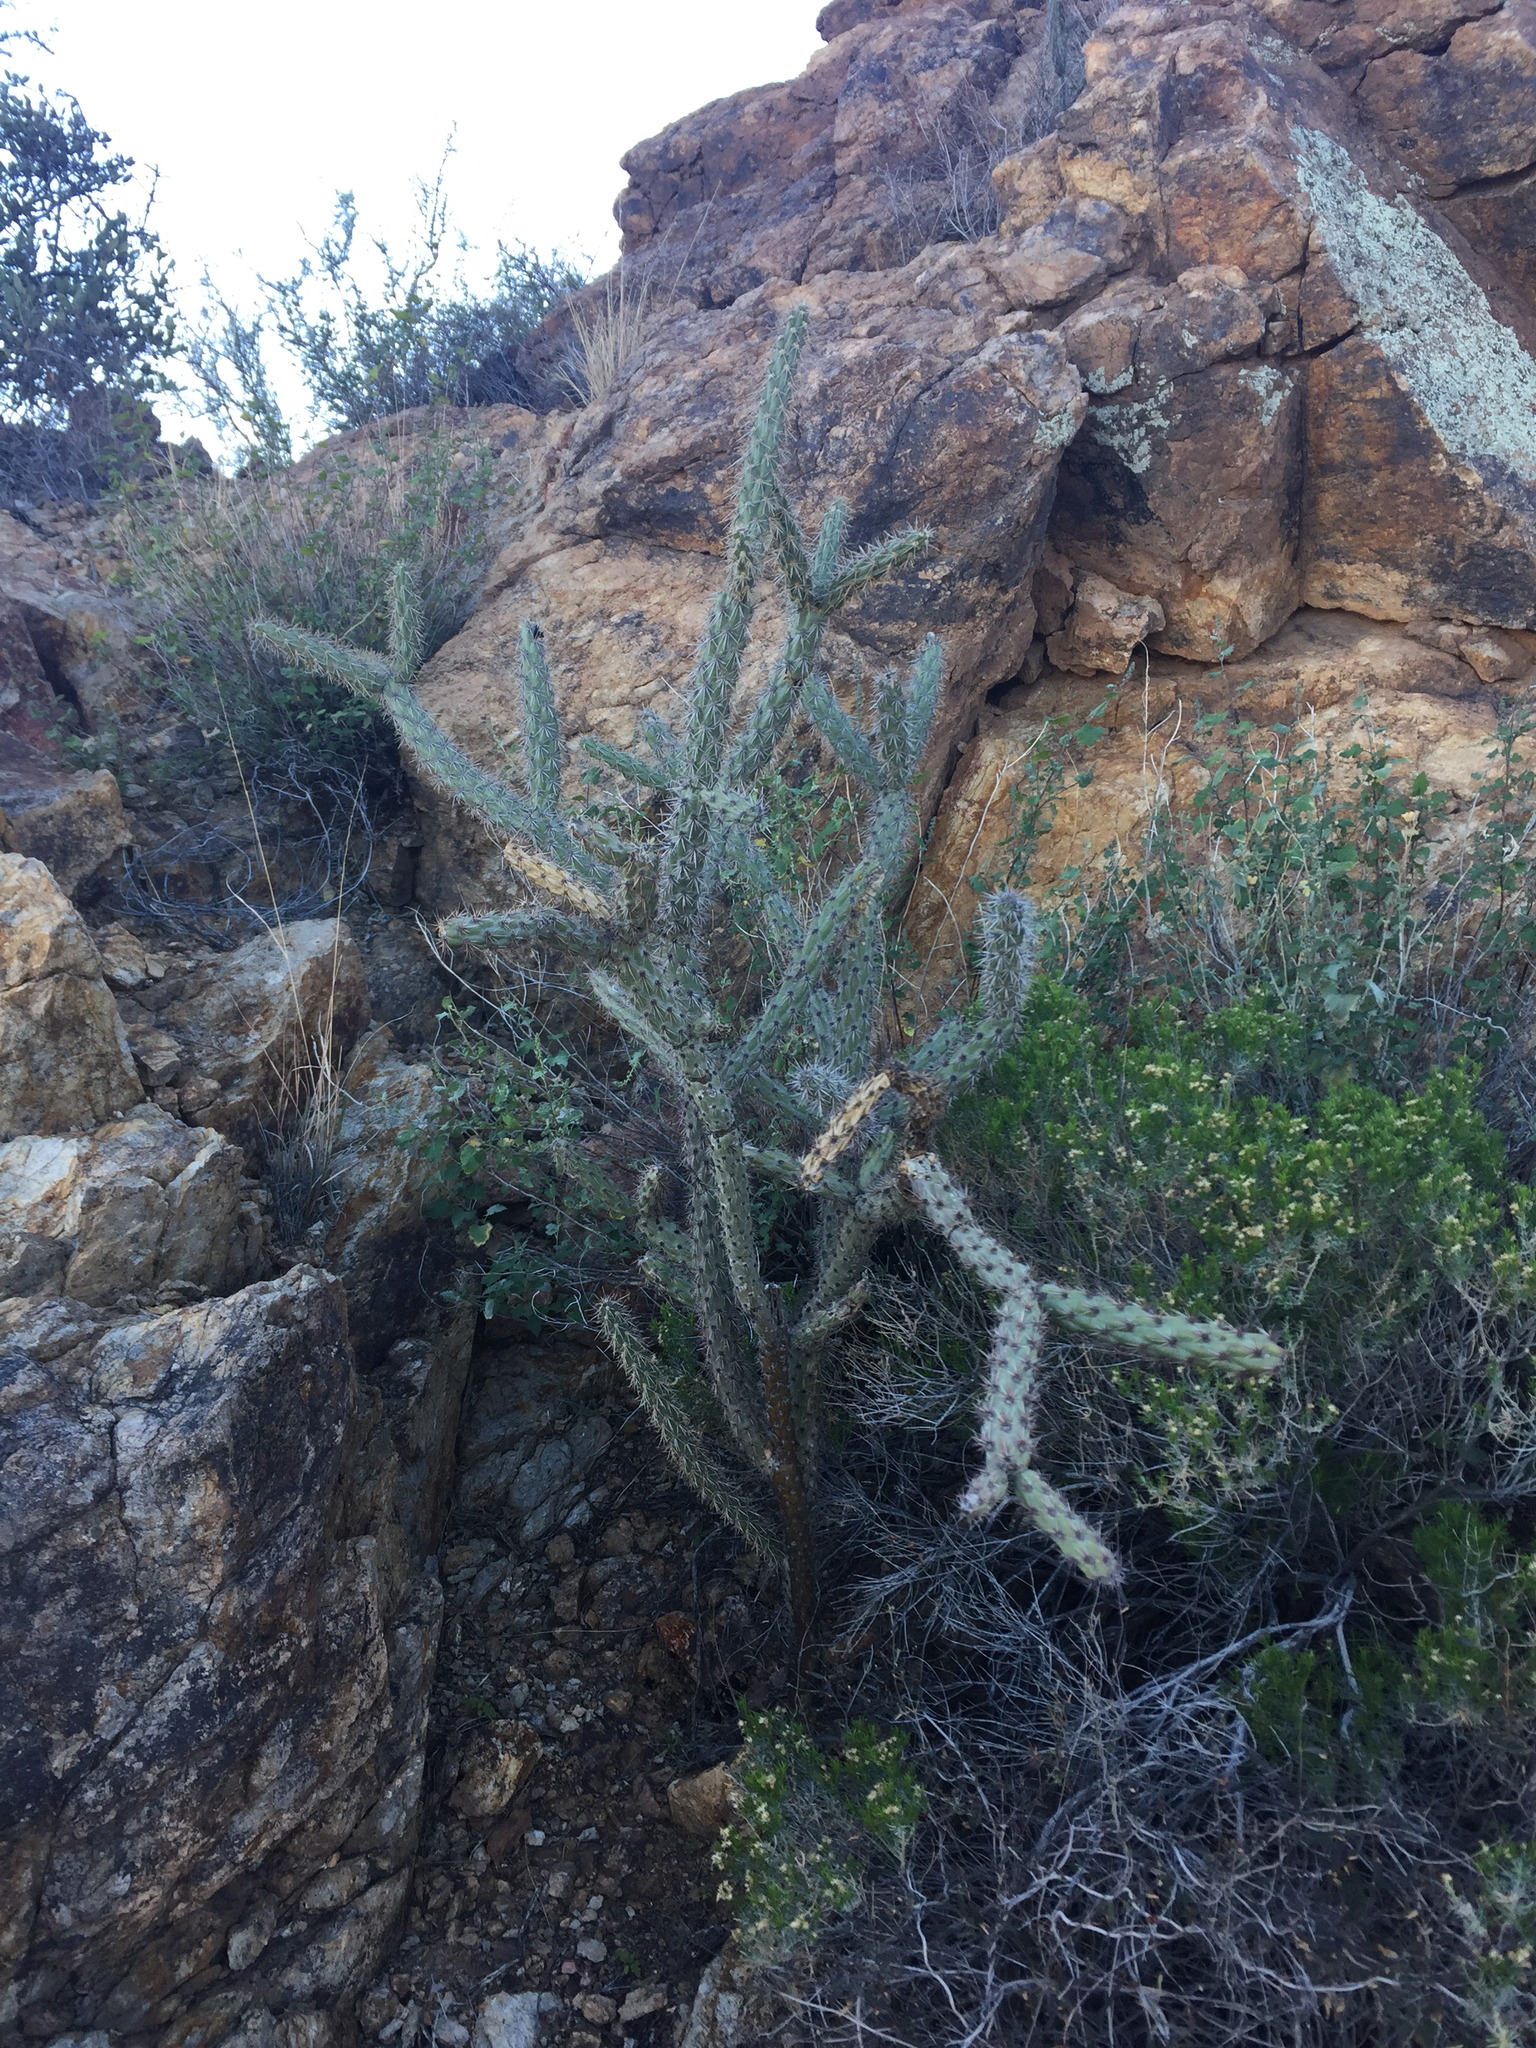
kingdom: Plantae
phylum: Tracheophyta
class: Magnoliopsida
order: Caryophyllales
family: Cactaceae
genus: Cylindropuntia
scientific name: Cylindropuntia acanthocarpa
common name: Buckhorn cholla
